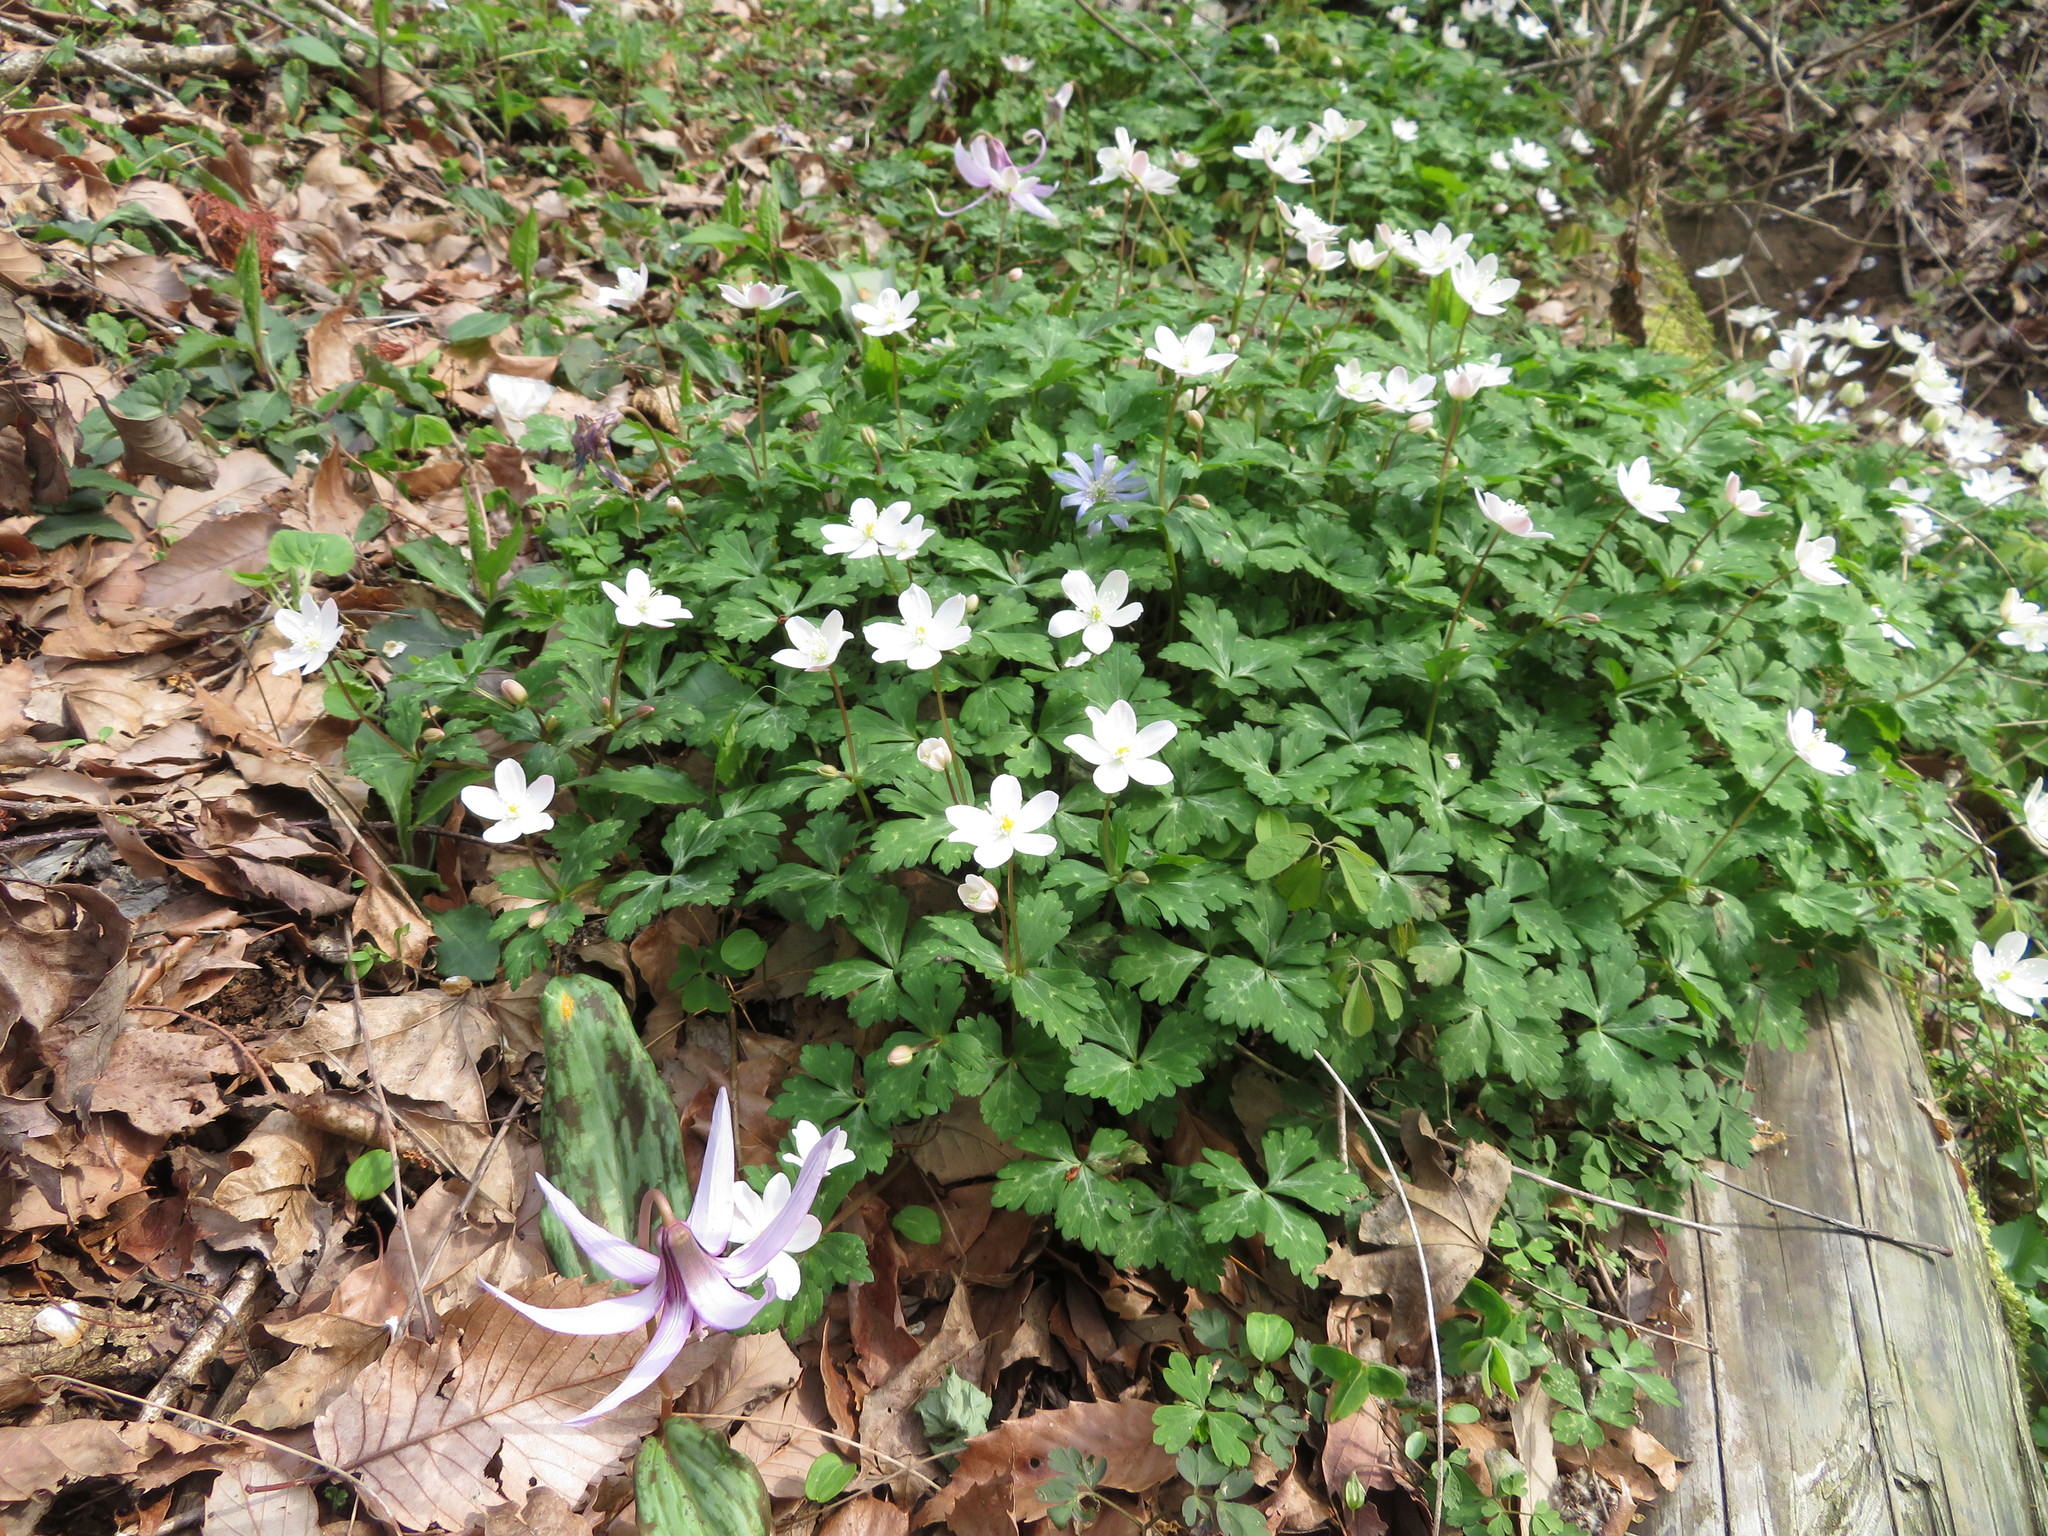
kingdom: Plantae
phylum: Tracheophyta
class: Magnoliopsida
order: Ranunculales
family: Ranunculaceae
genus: Anemonastrum
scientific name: Anemonastrum flaccidum
